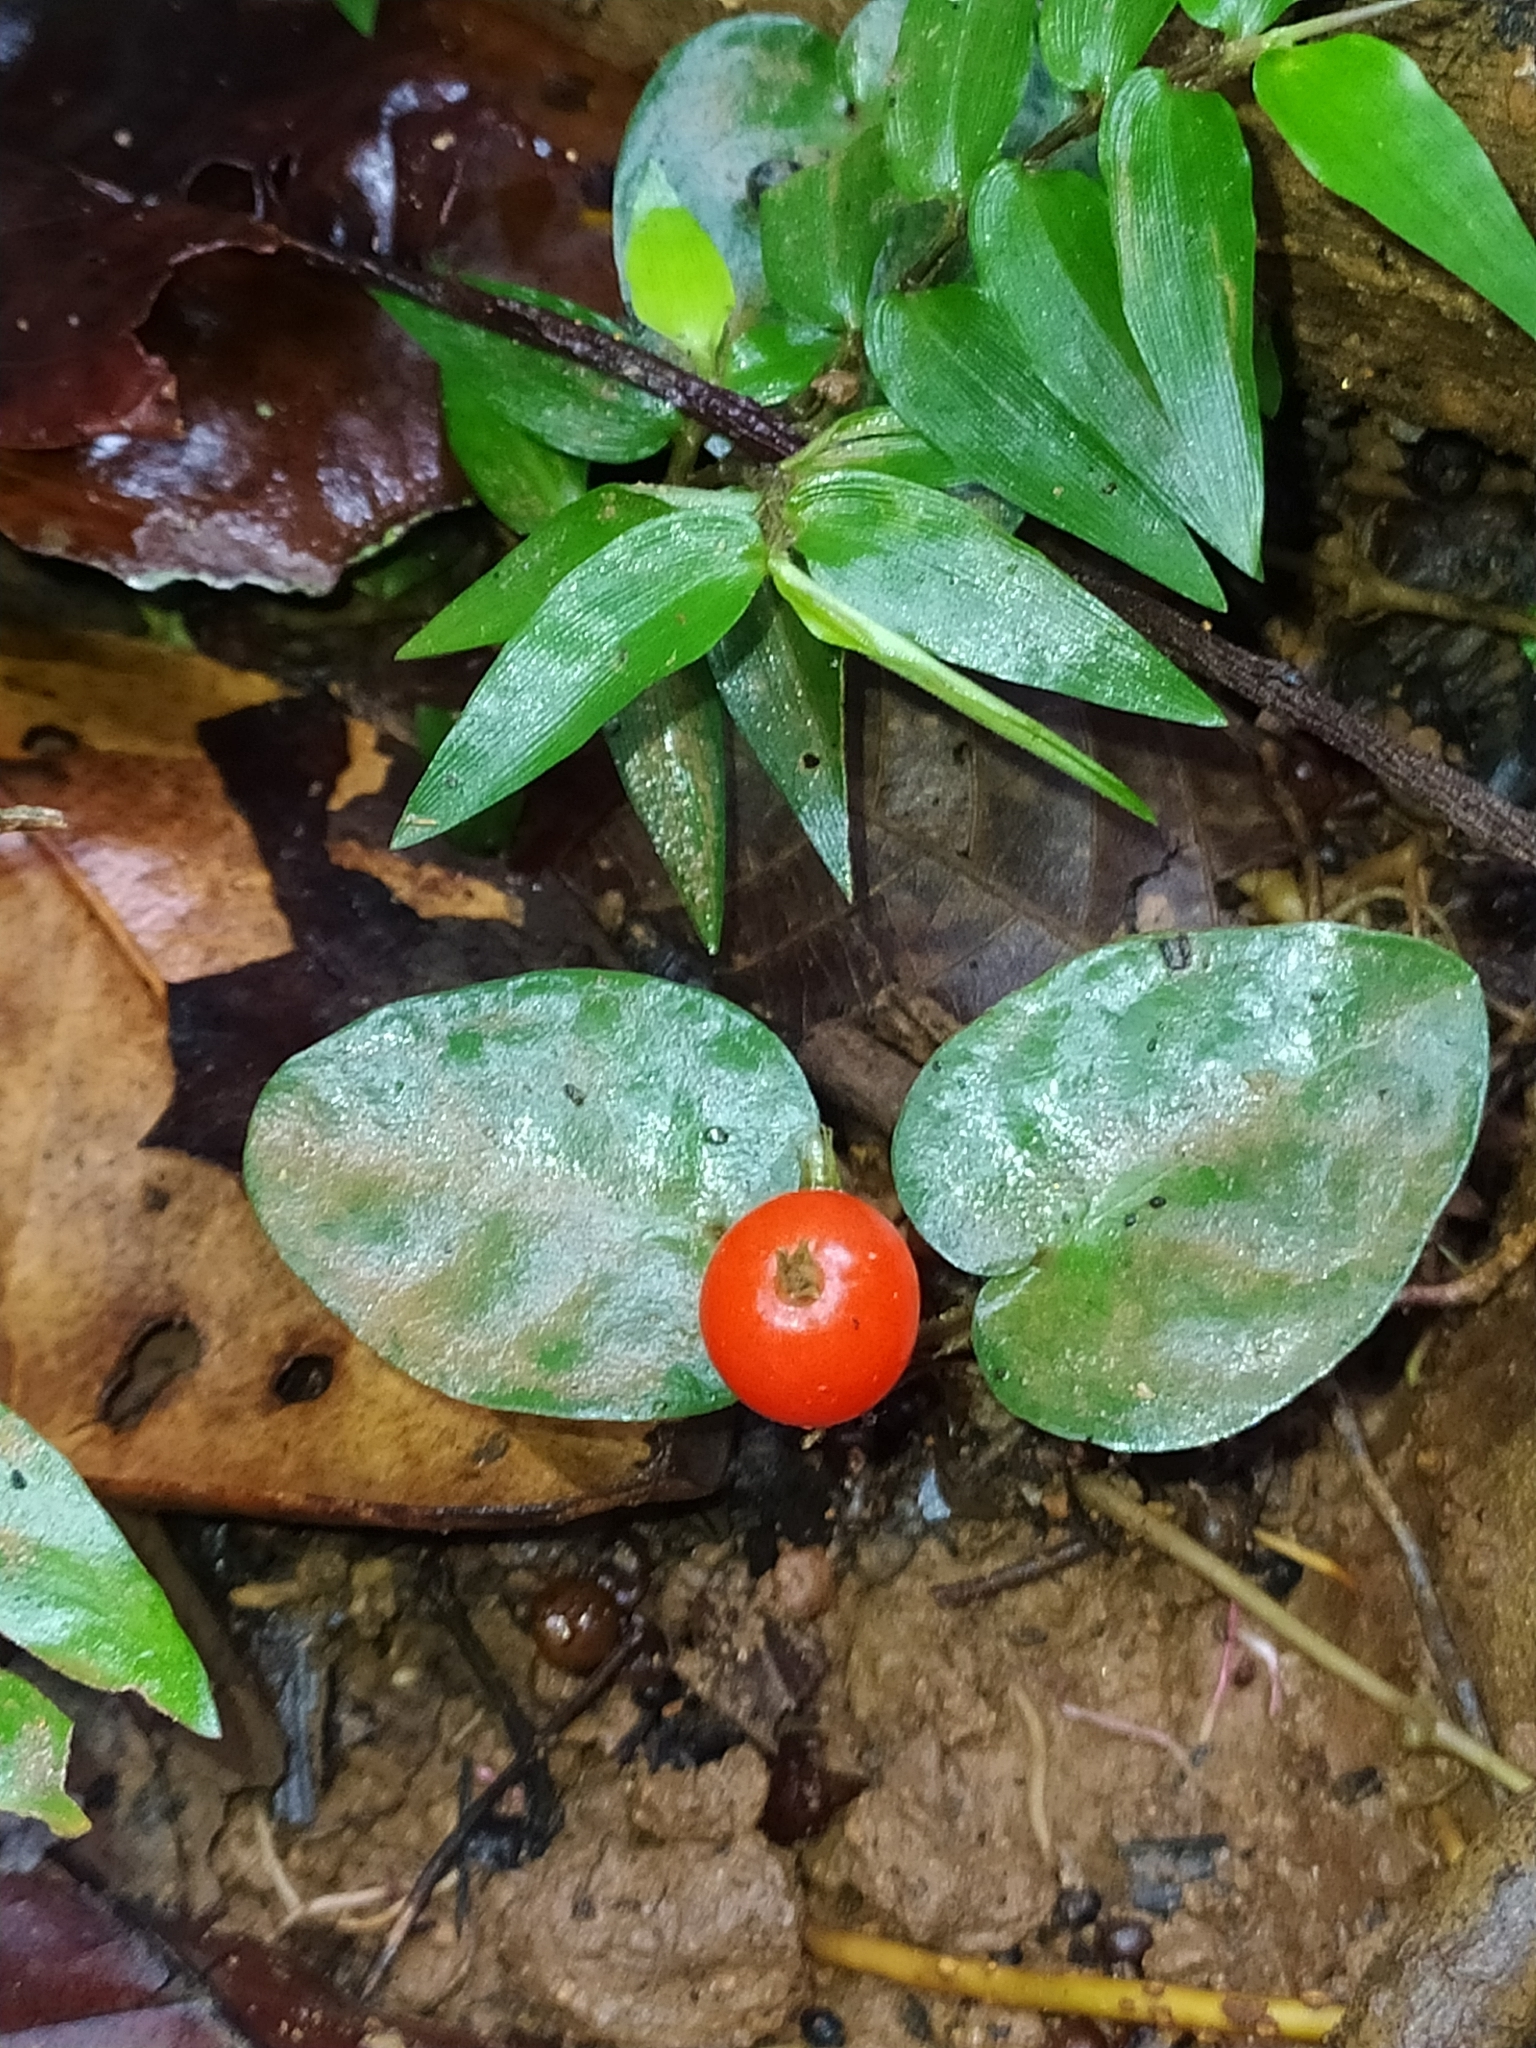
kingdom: Plantae
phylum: Tracheophyta
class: Magnoliopsida
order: Gentianales
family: Rubiaceae
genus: Geophila
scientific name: Geophila repens
